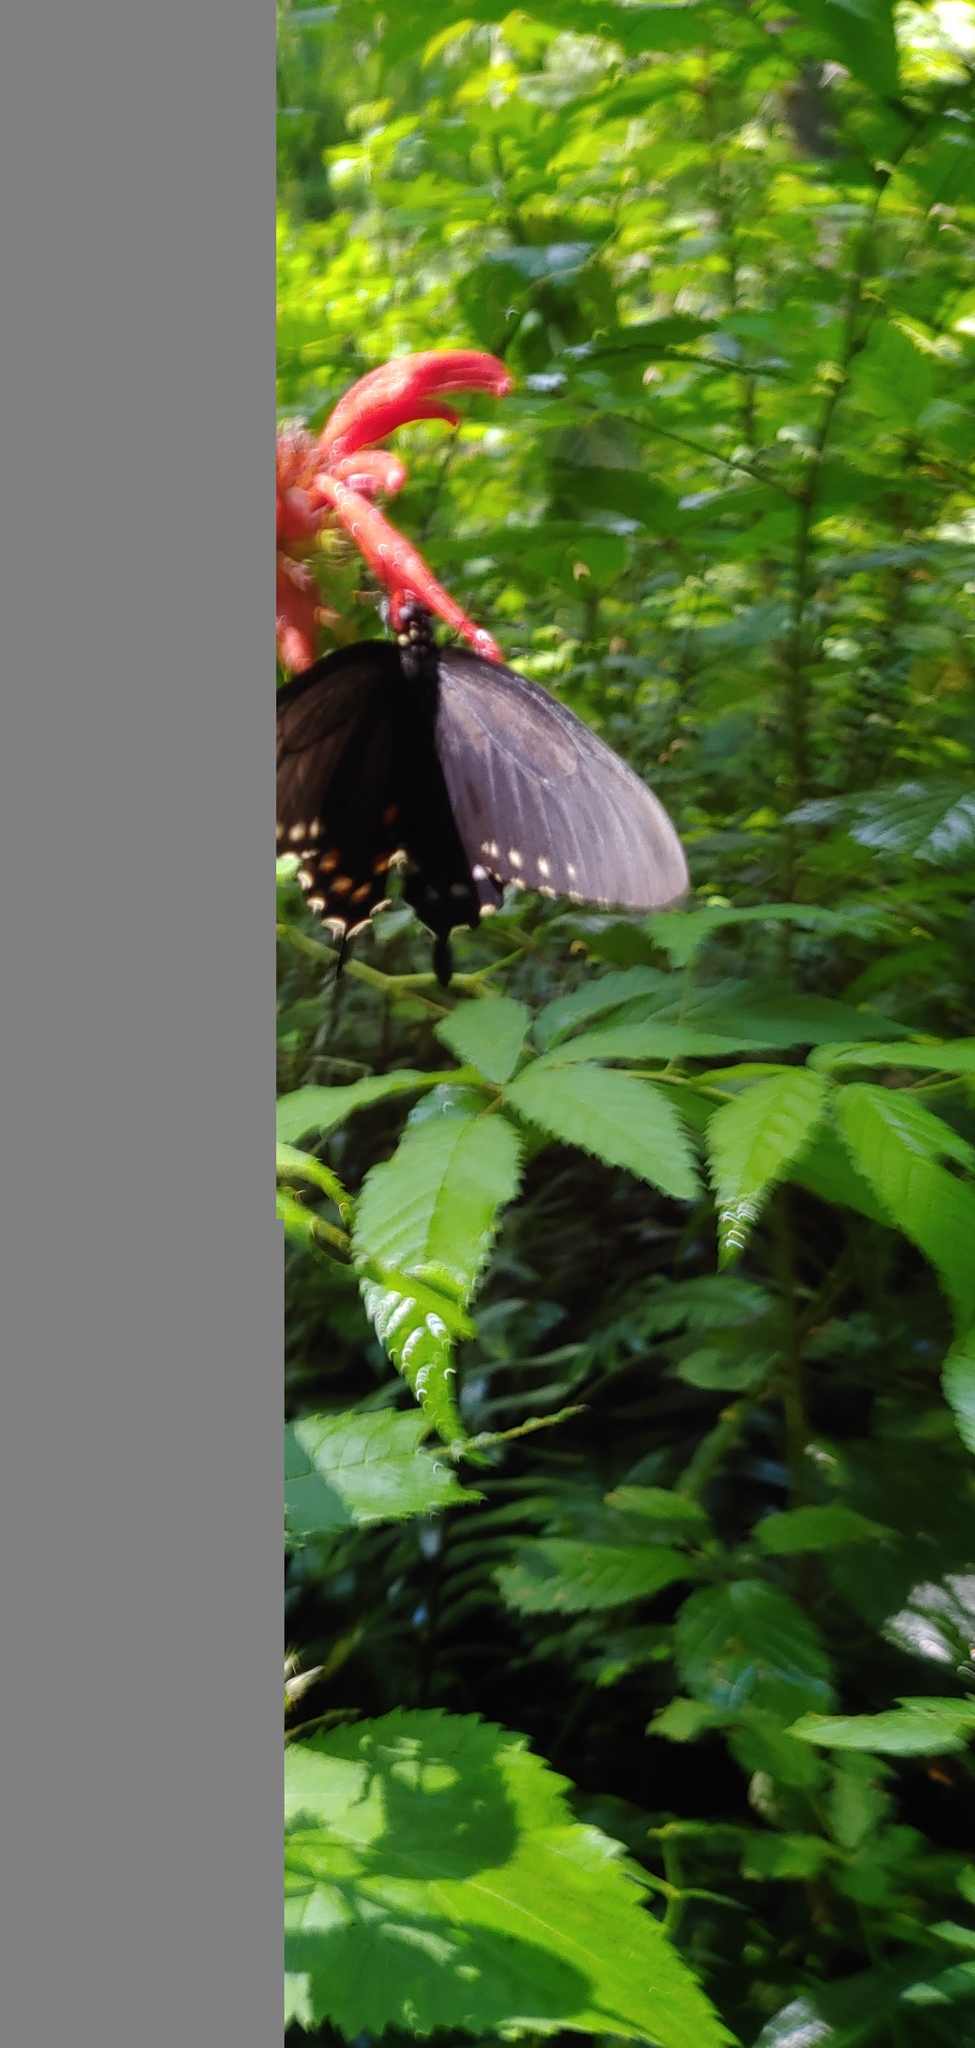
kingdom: Animalia
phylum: Arthropoda
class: Insecta
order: Lepidoptera
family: Papilionidae
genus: Battus
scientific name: Battus philenor
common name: Pipevine swallowtail
